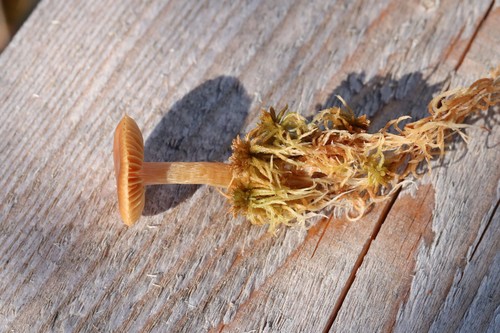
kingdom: Fungi
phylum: Basidiomycota
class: Agaricomycetes
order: Agaricales
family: Cortinariaceae
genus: Cortinarius
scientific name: Cortinarius biformis
